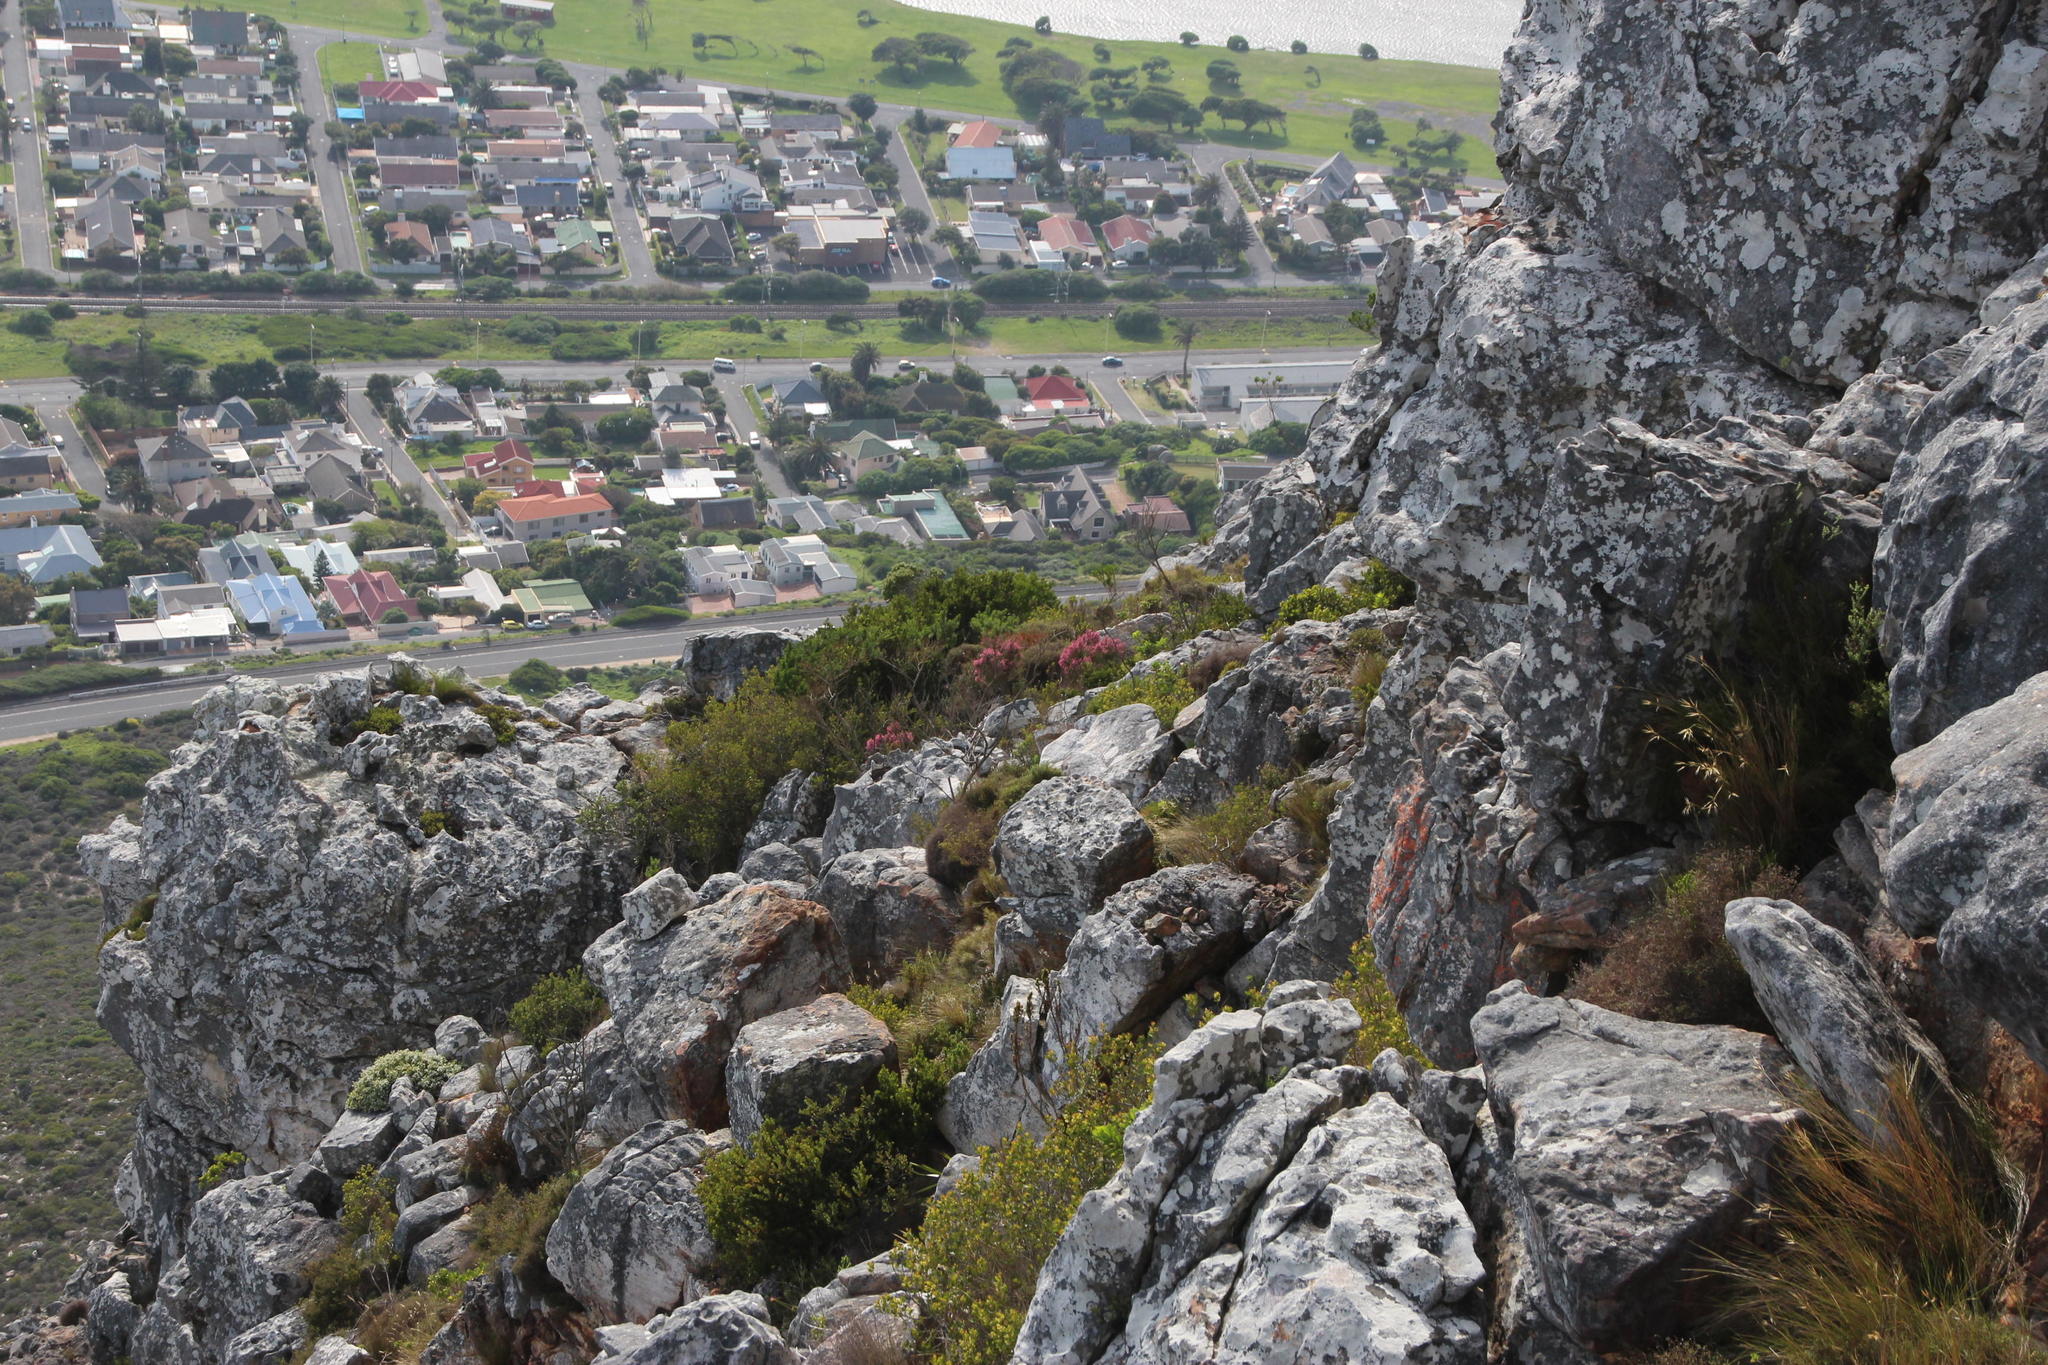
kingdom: Plantae
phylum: Tracheophyta
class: Magnoliopsida
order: Ericales
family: Ericaceae
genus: Erica
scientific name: Erica baccans
